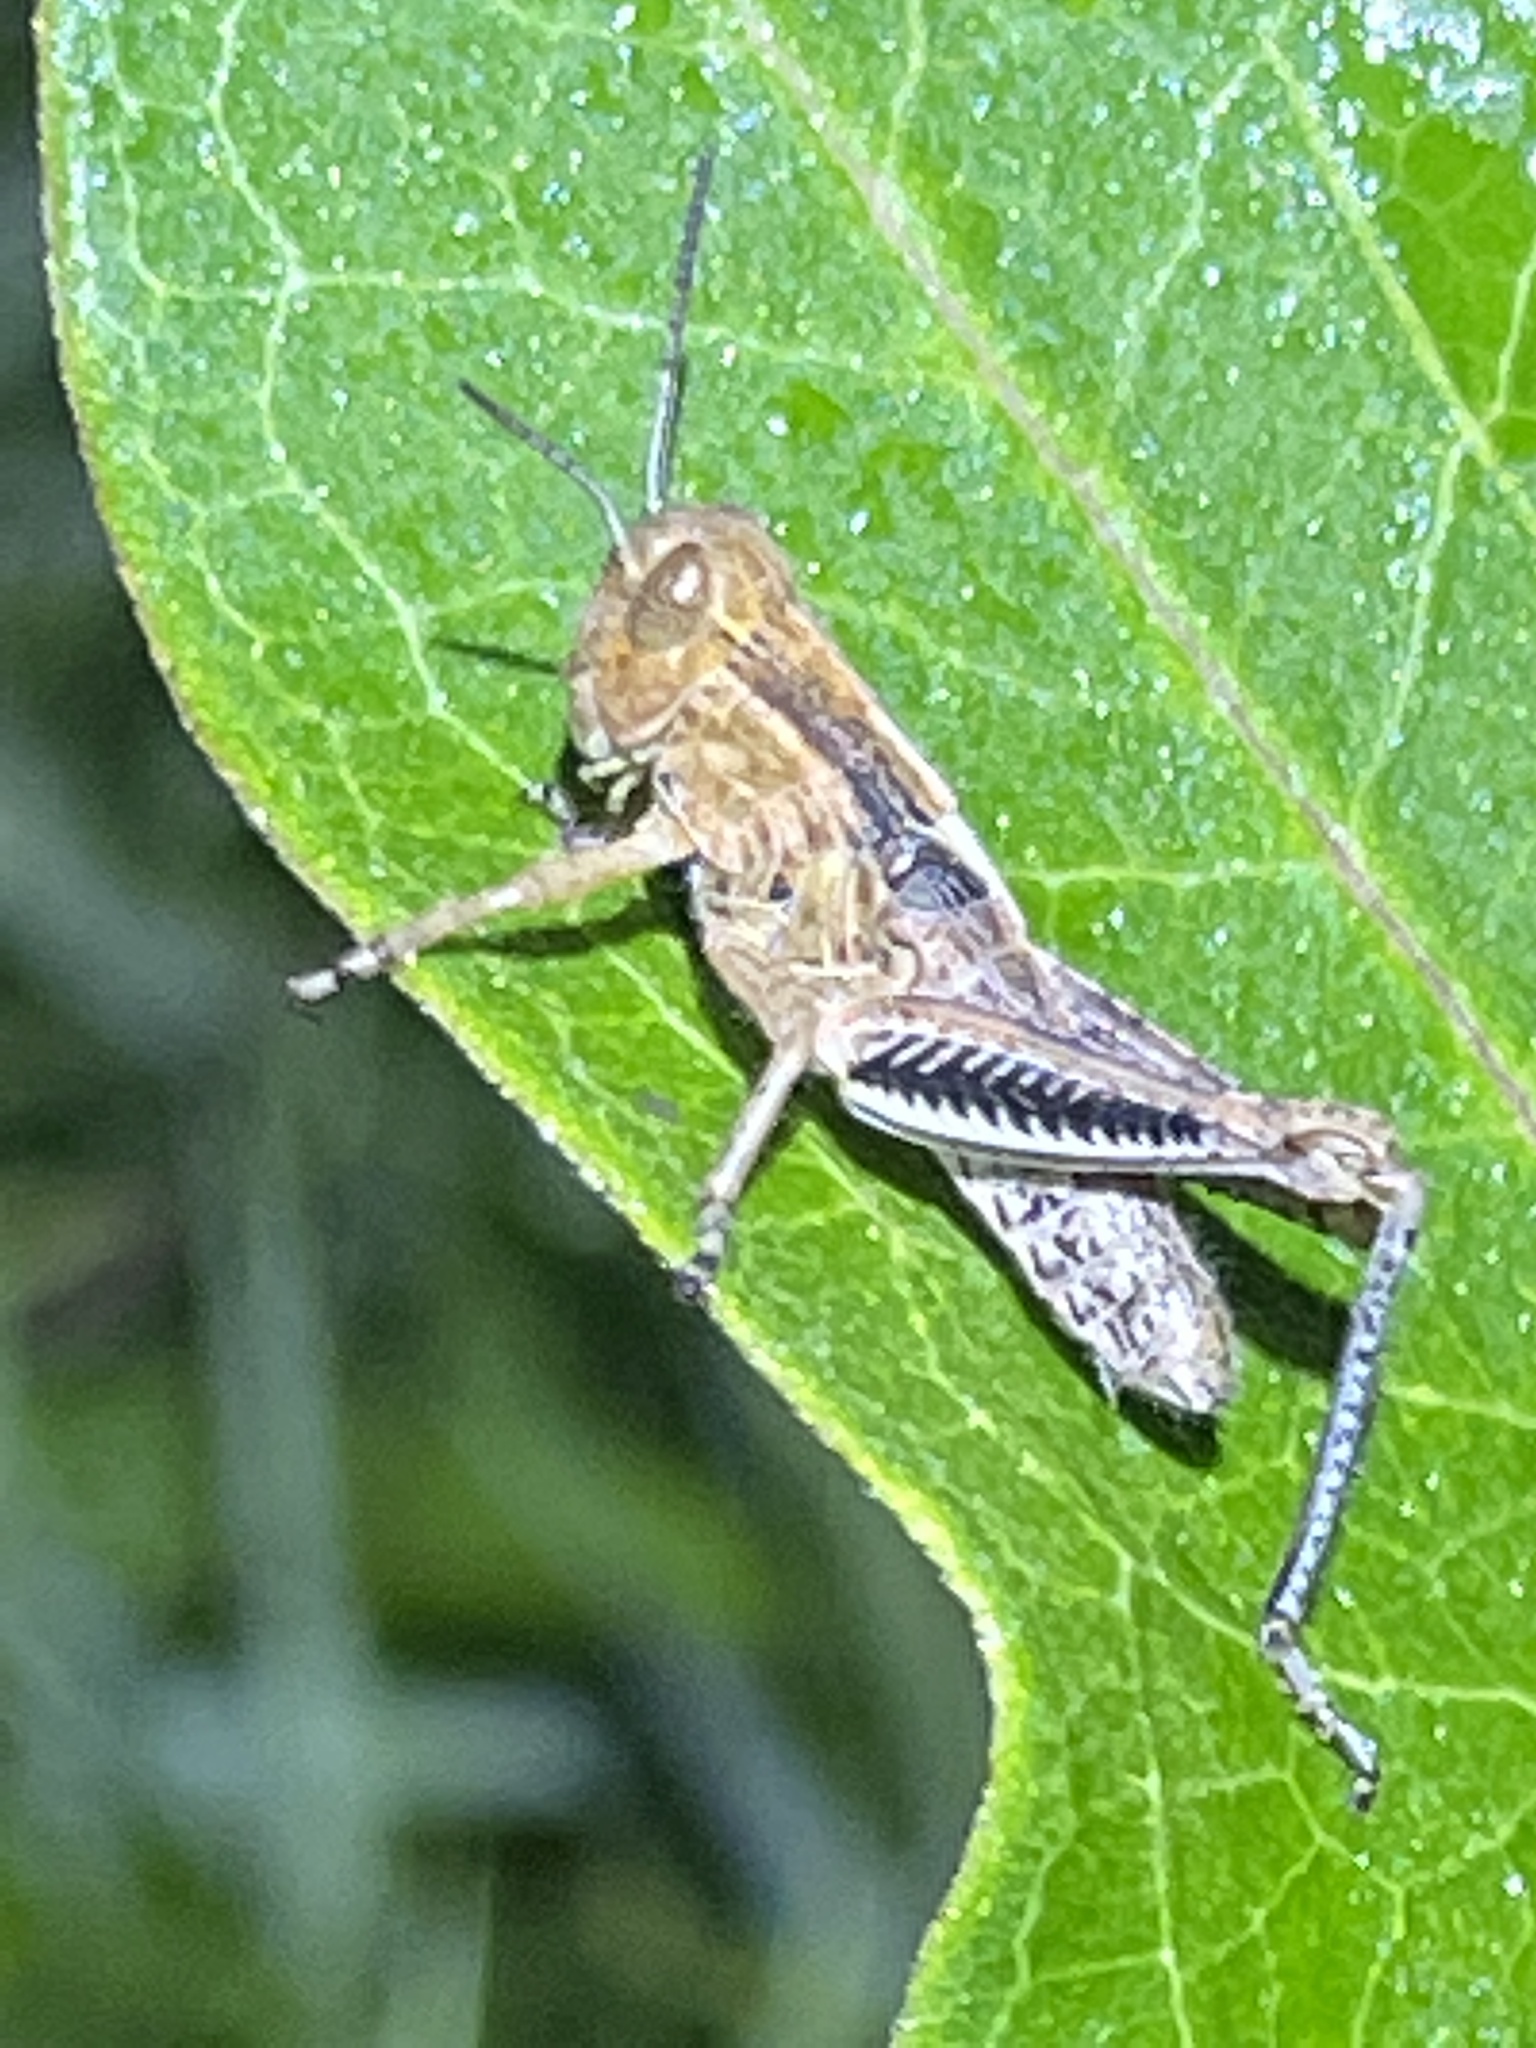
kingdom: Animalia
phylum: Arthropoda
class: Insecta
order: Orthoptera
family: Acrididae
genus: Melanoplus
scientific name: Melanoplus differentialis
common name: Differential grasshopper
